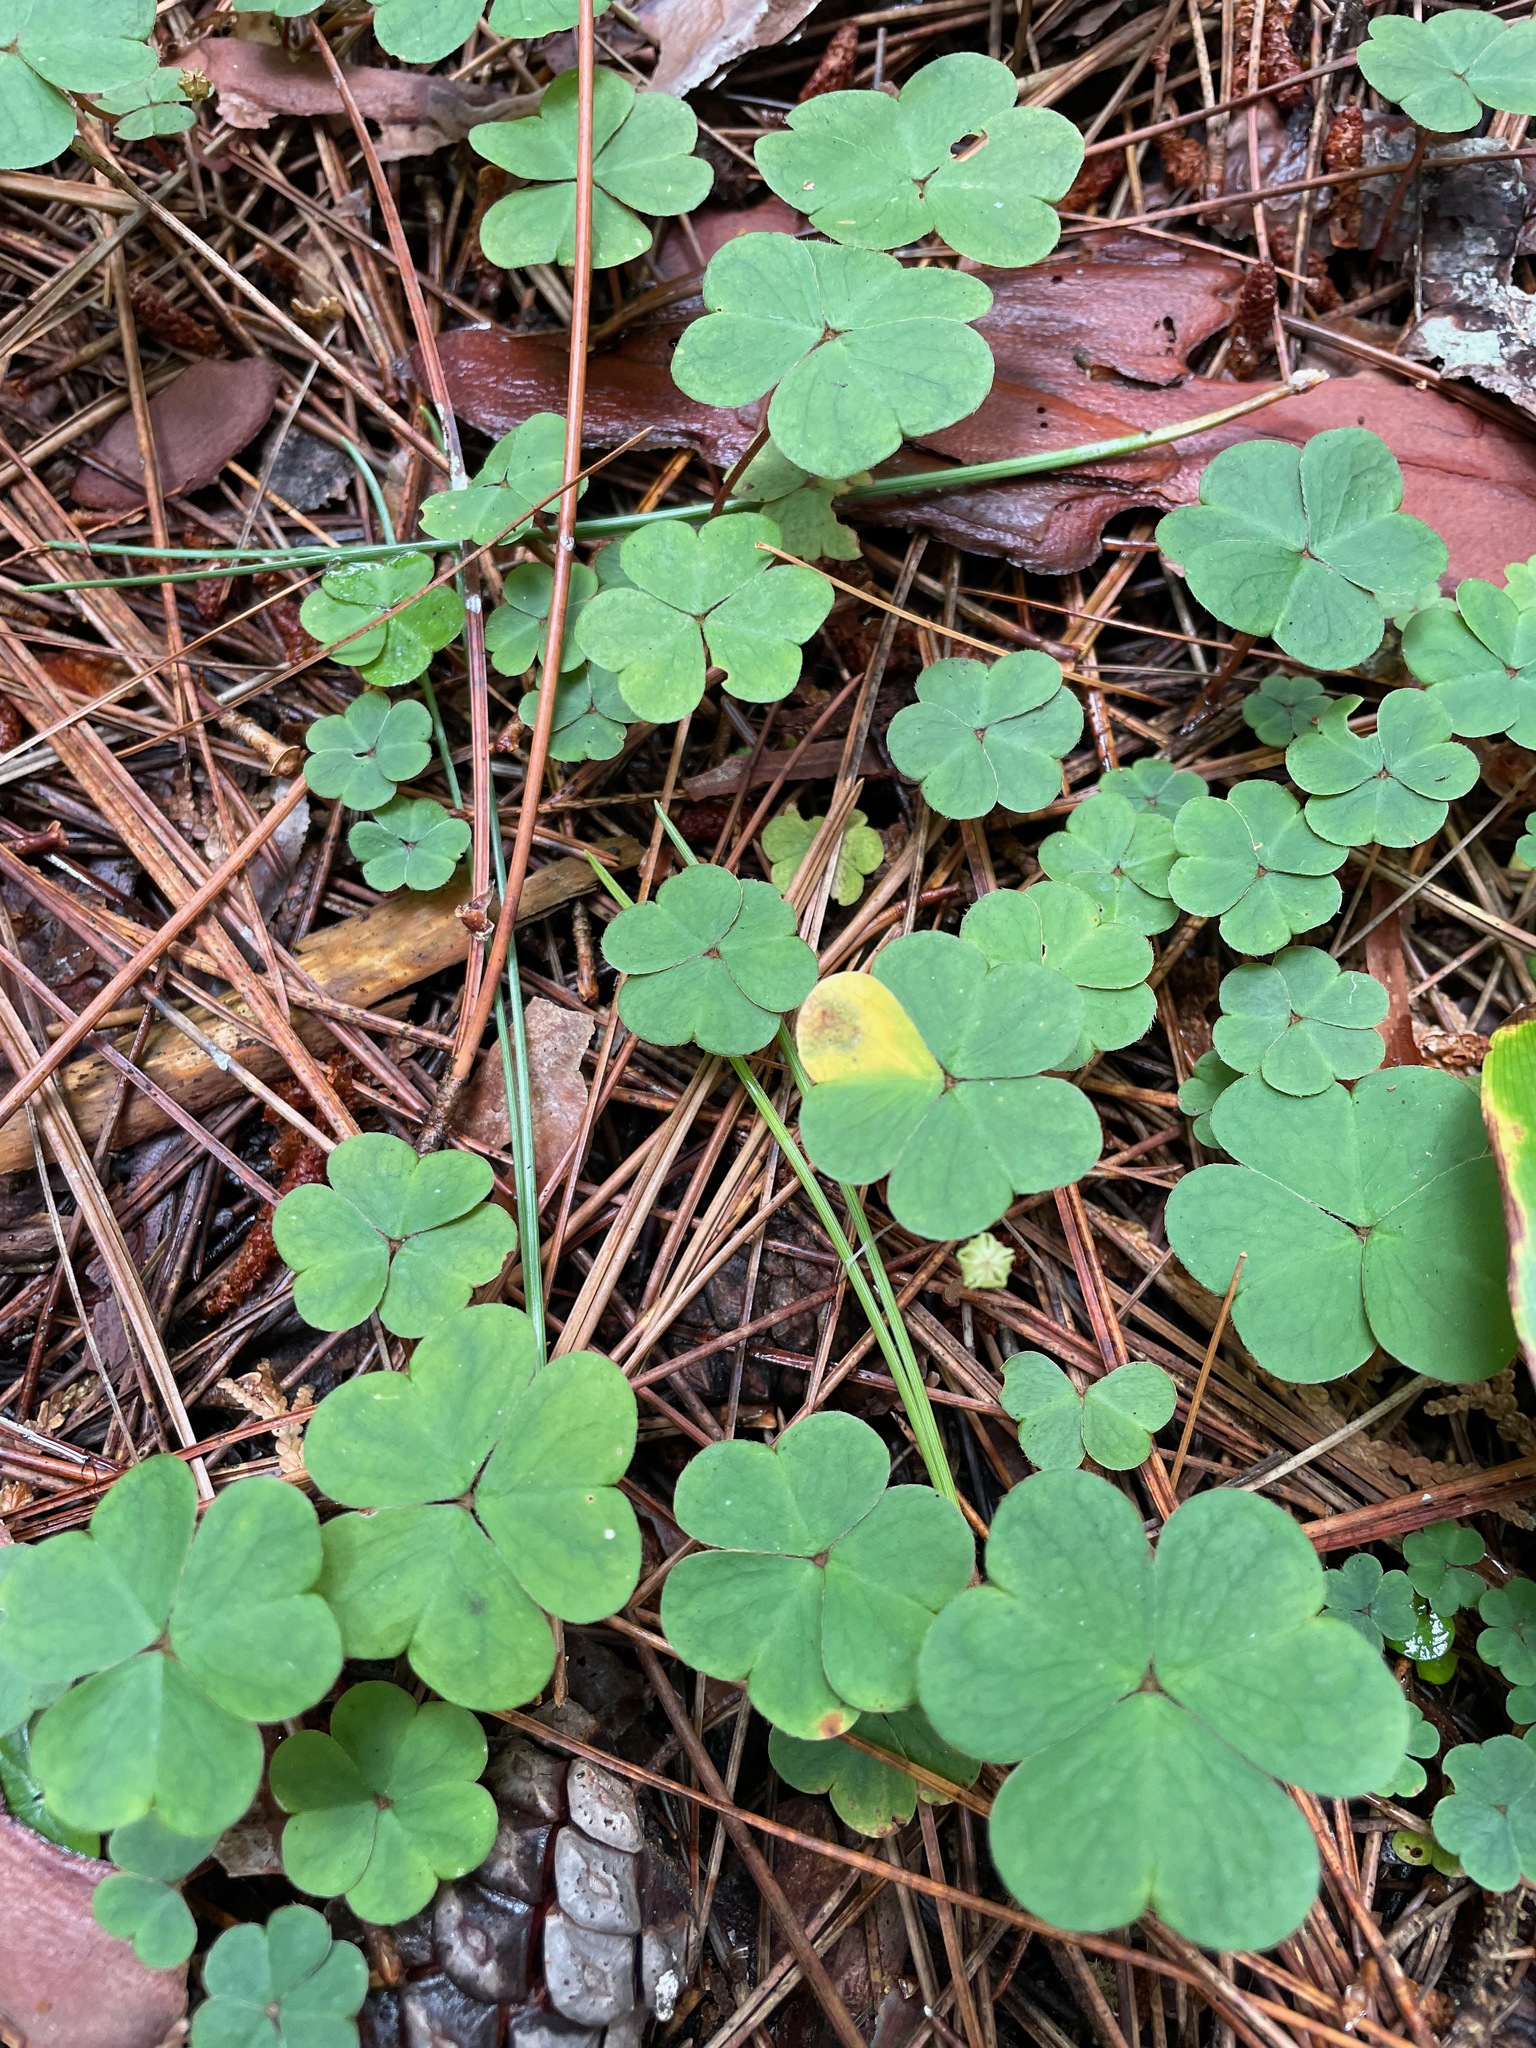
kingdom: Plantae
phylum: Tracheophyta
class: Magnoliopsida
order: Oxalidales
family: Oxalidaceae
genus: Oxalis
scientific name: Oxalis montana
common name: American wood-sorrel
